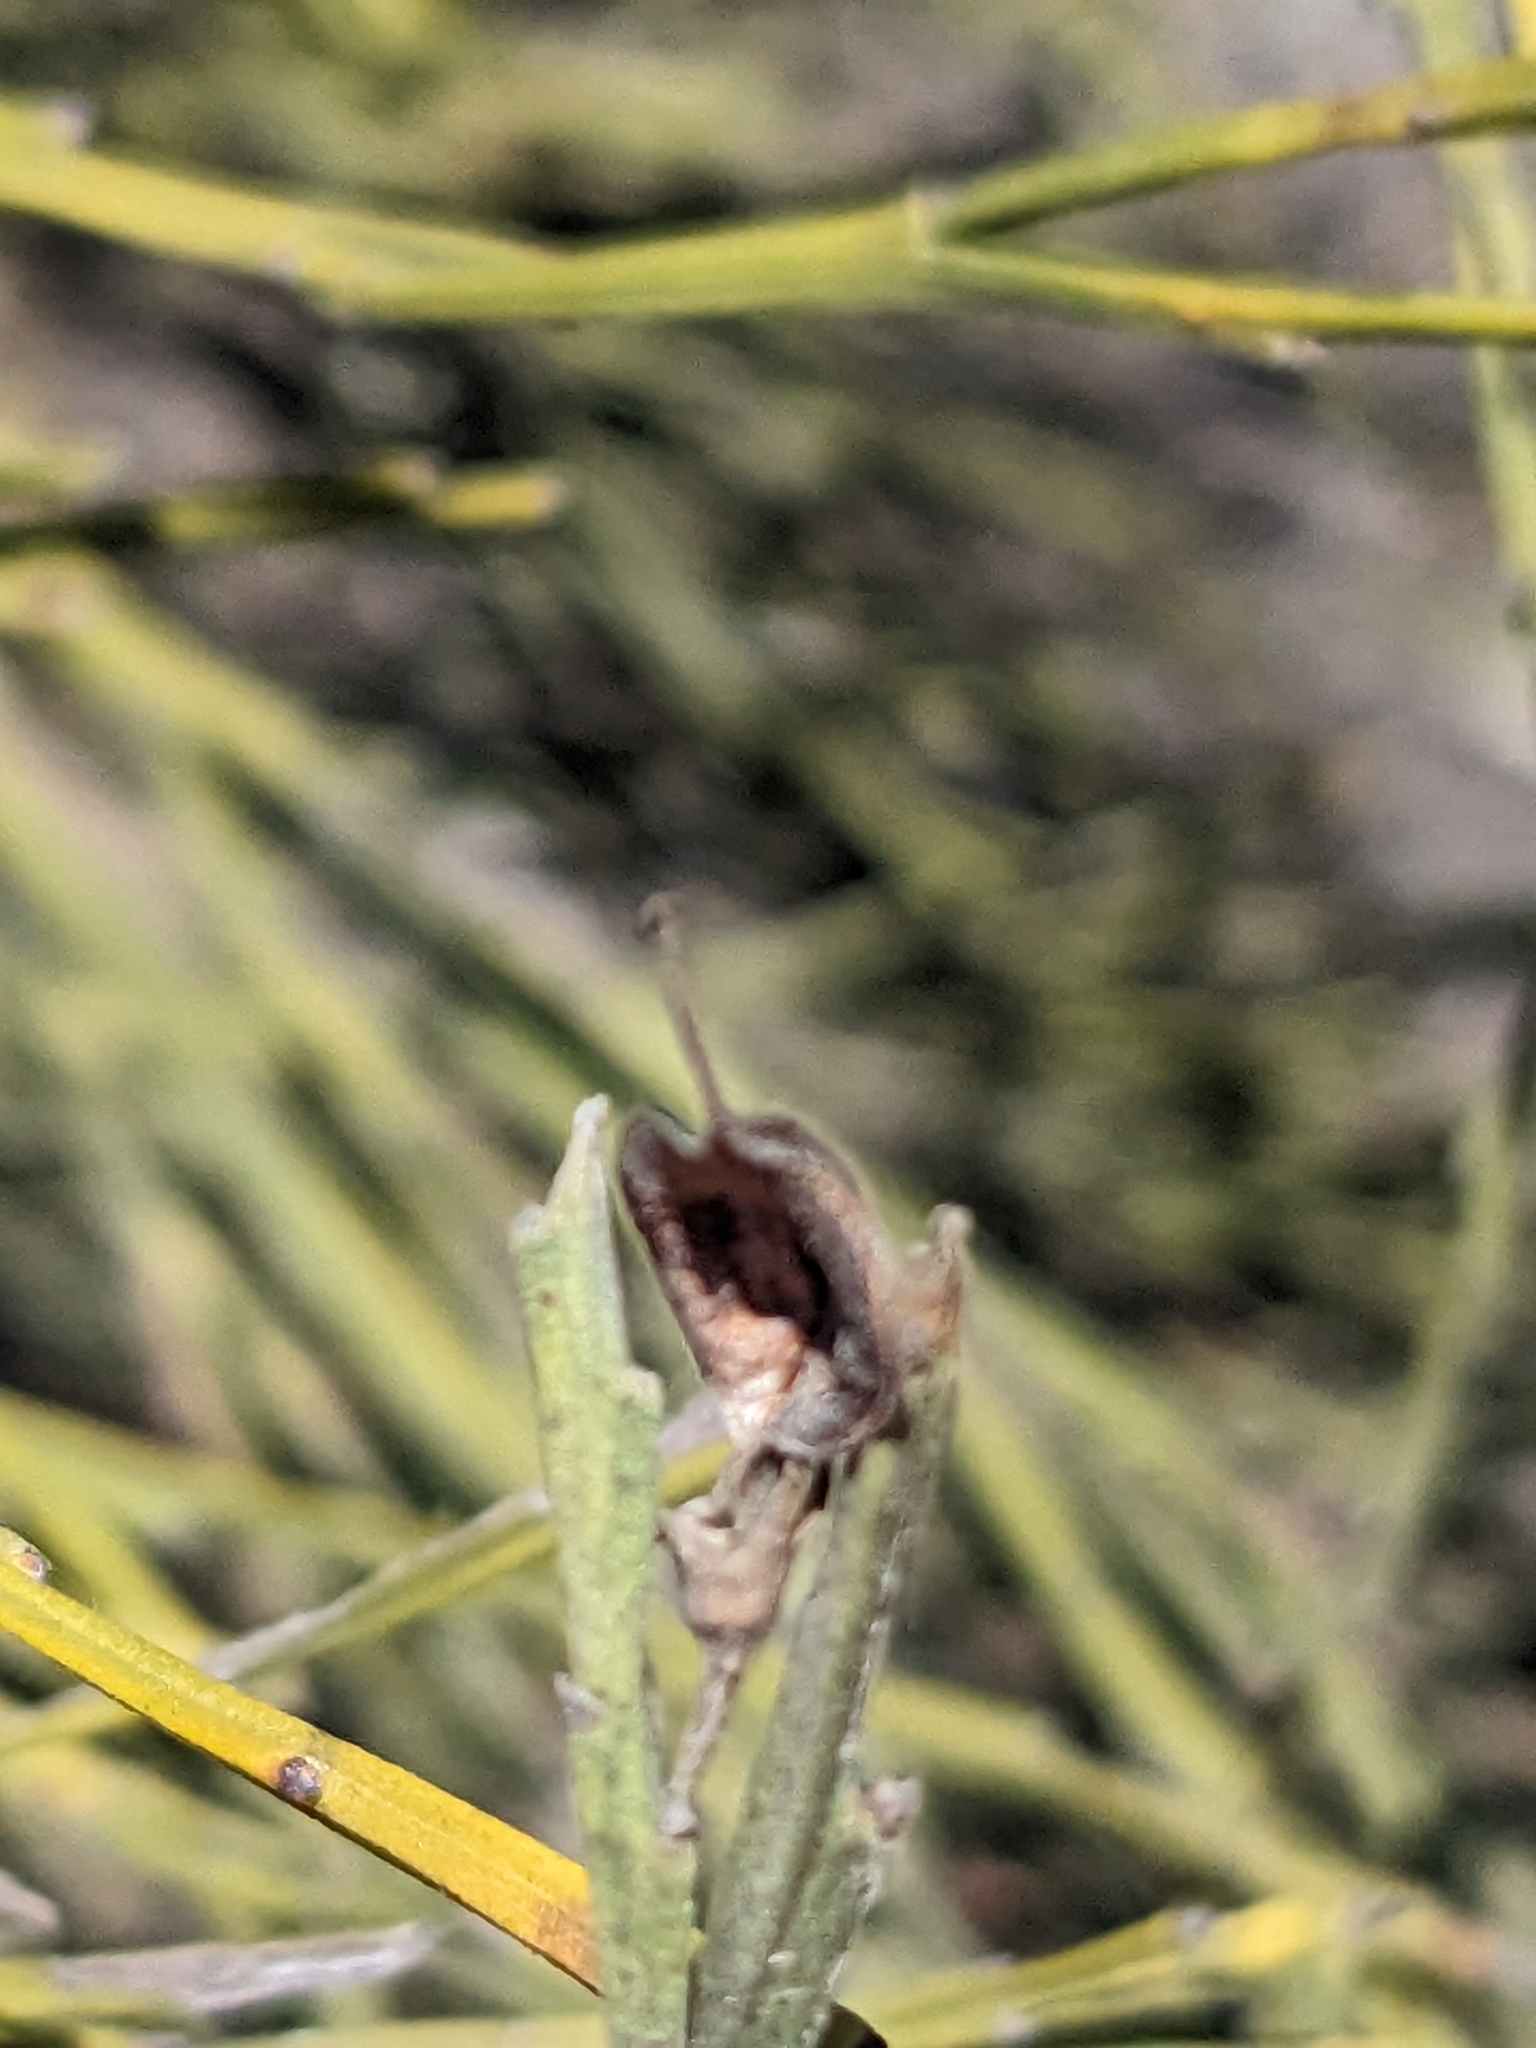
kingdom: Plantae
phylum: Tracheophyta
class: Magnoliopsida
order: Fabales
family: Fabaceae
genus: Jacksonia
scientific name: Jacksonia scoparia
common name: Dogwood
